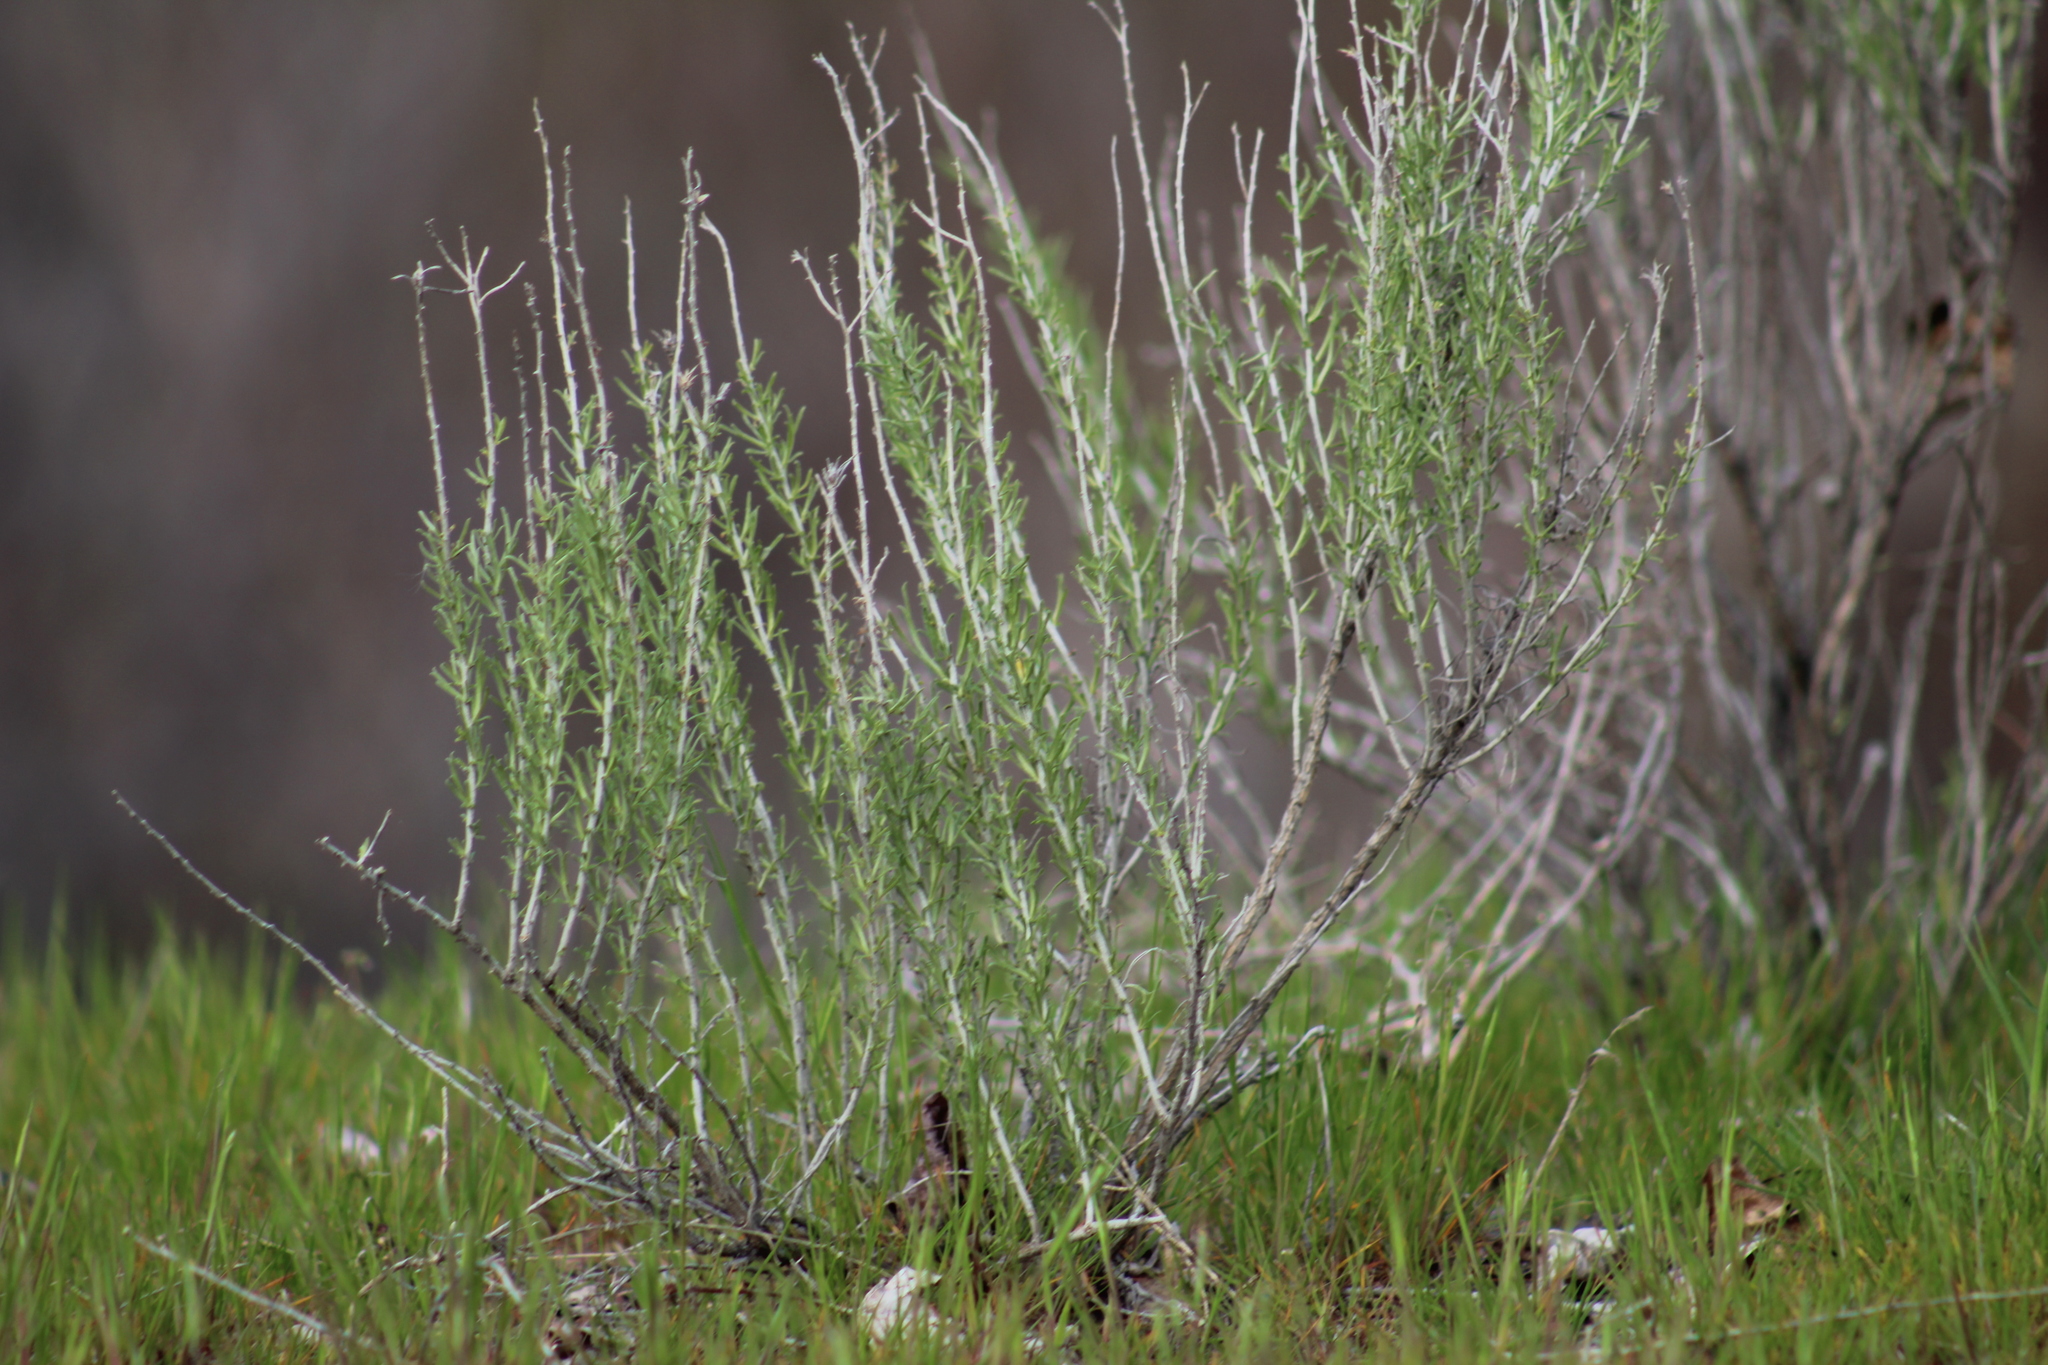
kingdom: Plantae
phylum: Tracheophyta
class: Magnoliopsida
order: Asterales
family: Asteraceae
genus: Ericameria
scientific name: Ericameria nauseosa
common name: Rubber rabbitbrush
